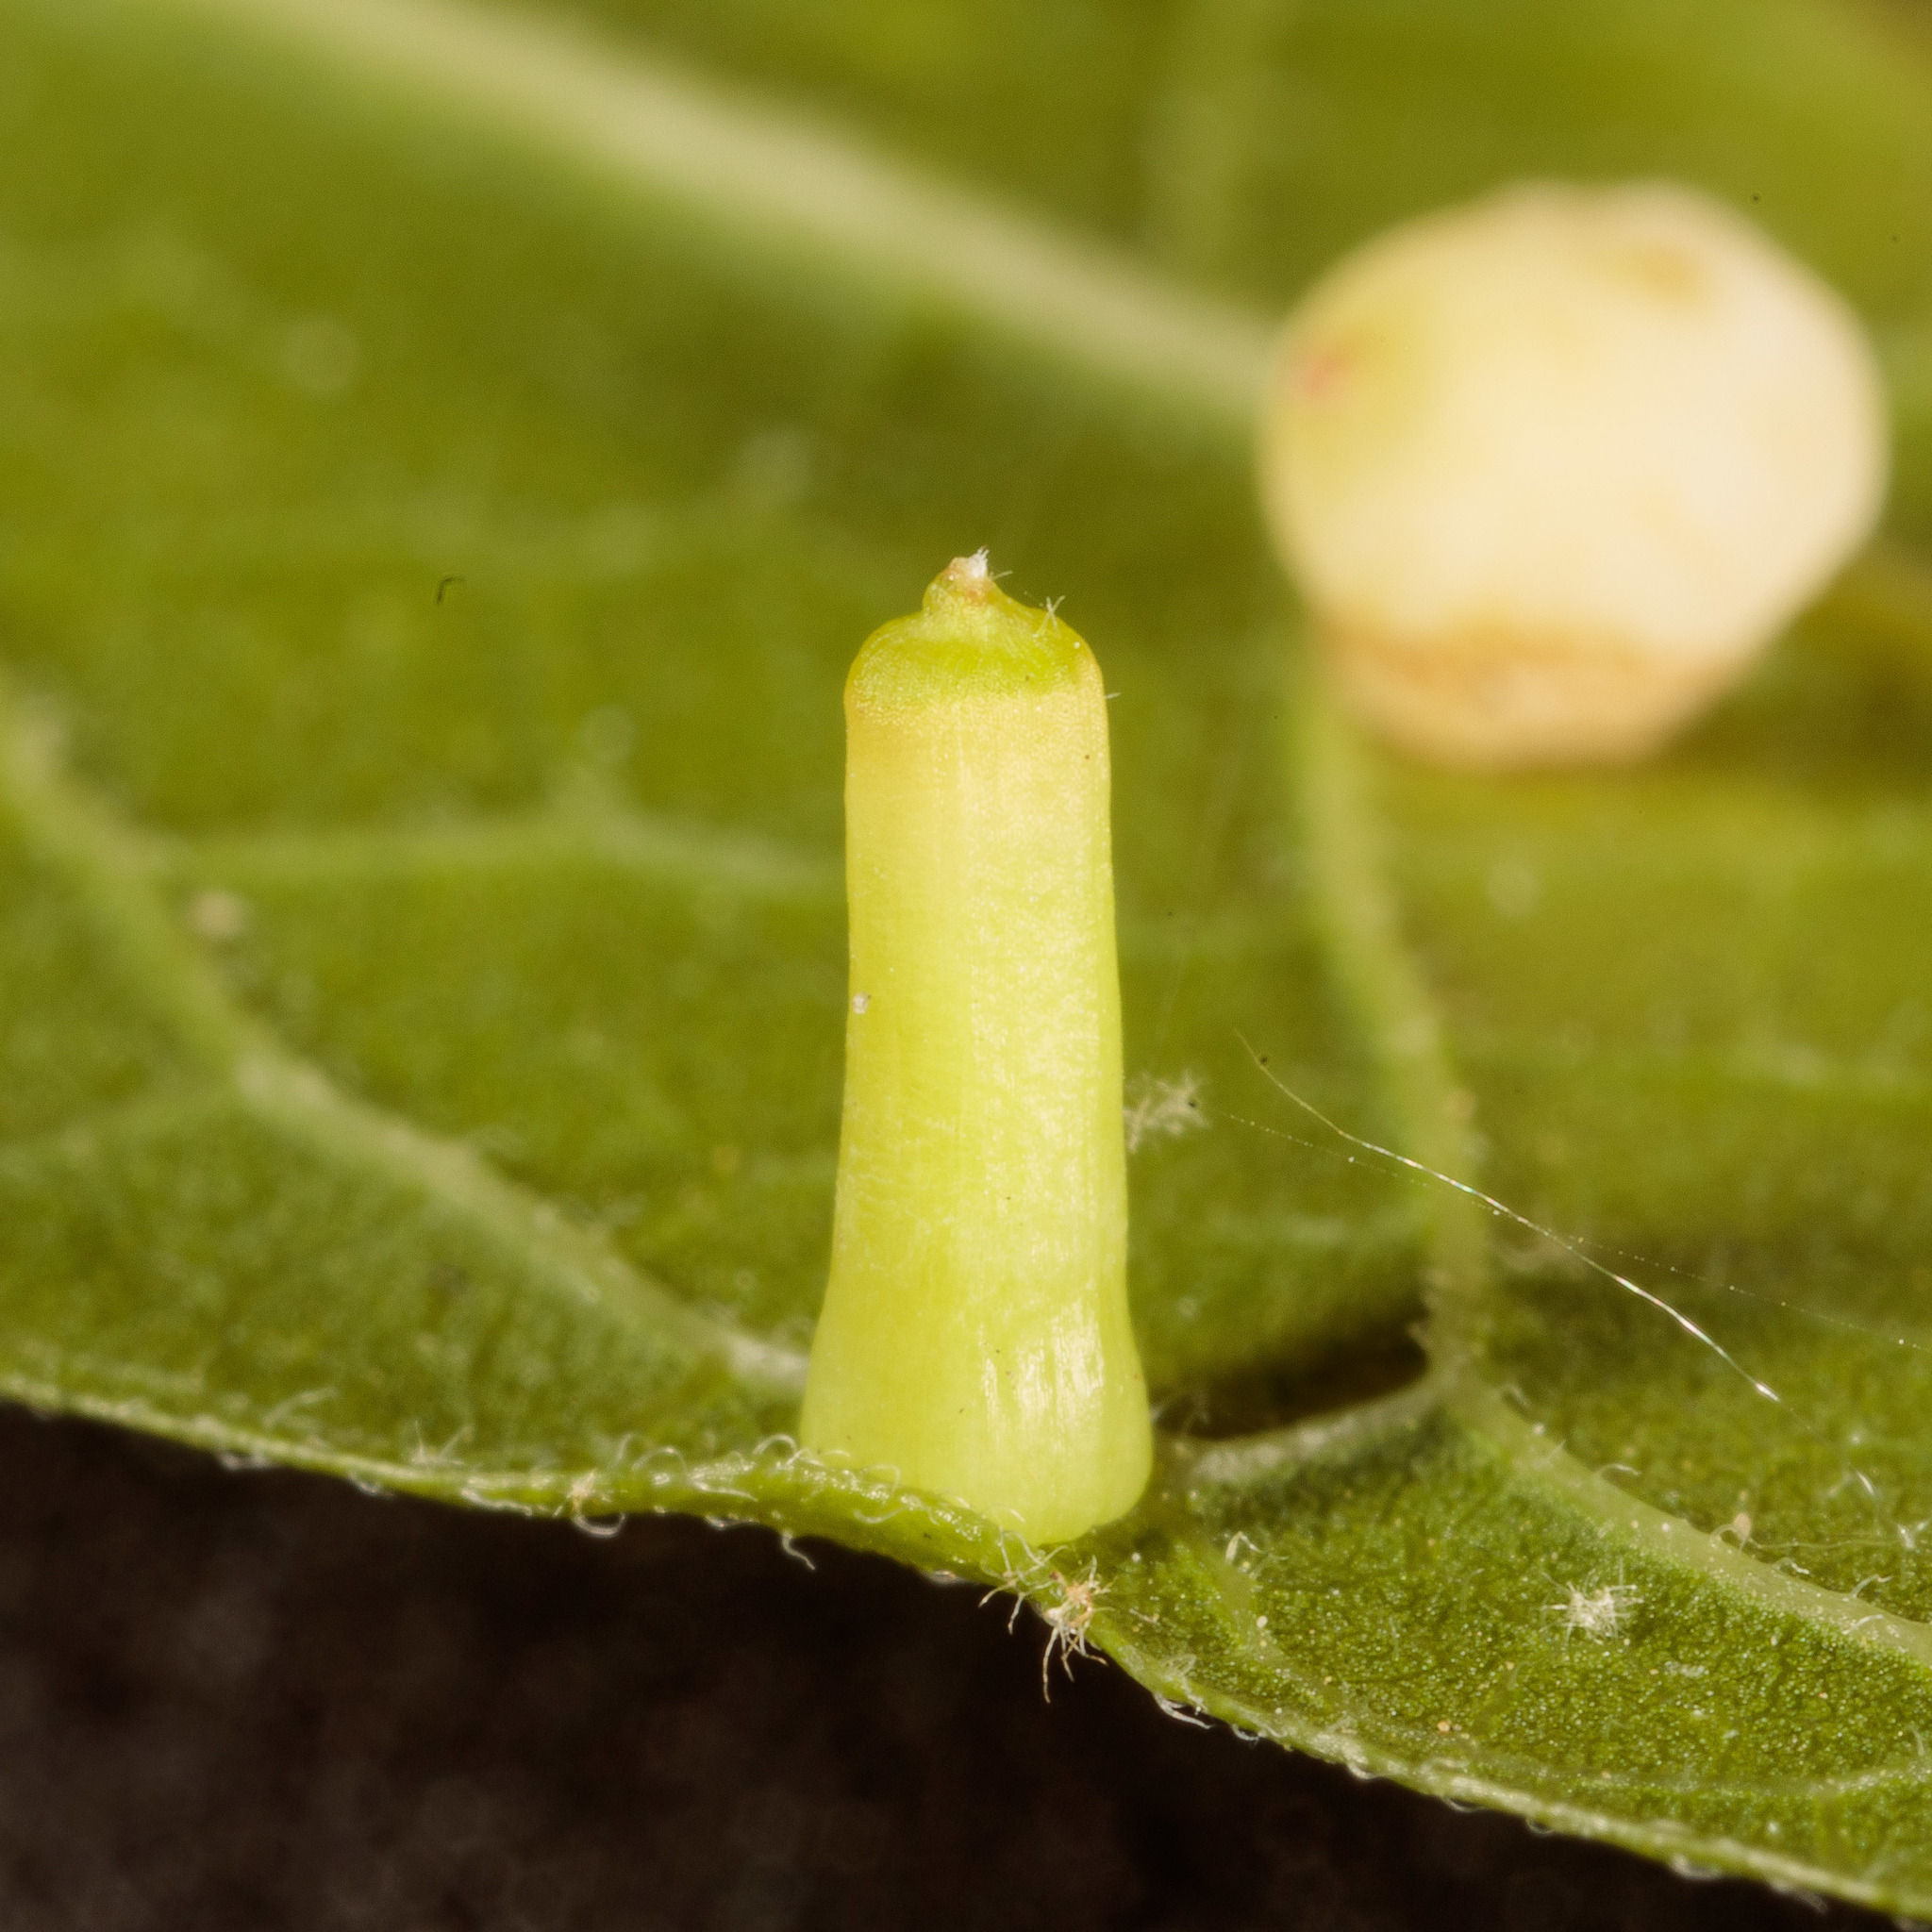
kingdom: Animalia
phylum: Arthropoda
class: Insecta
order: Diptera
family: Cecidomyiidae
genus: Celticecis
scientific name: Celticecis aciculata
